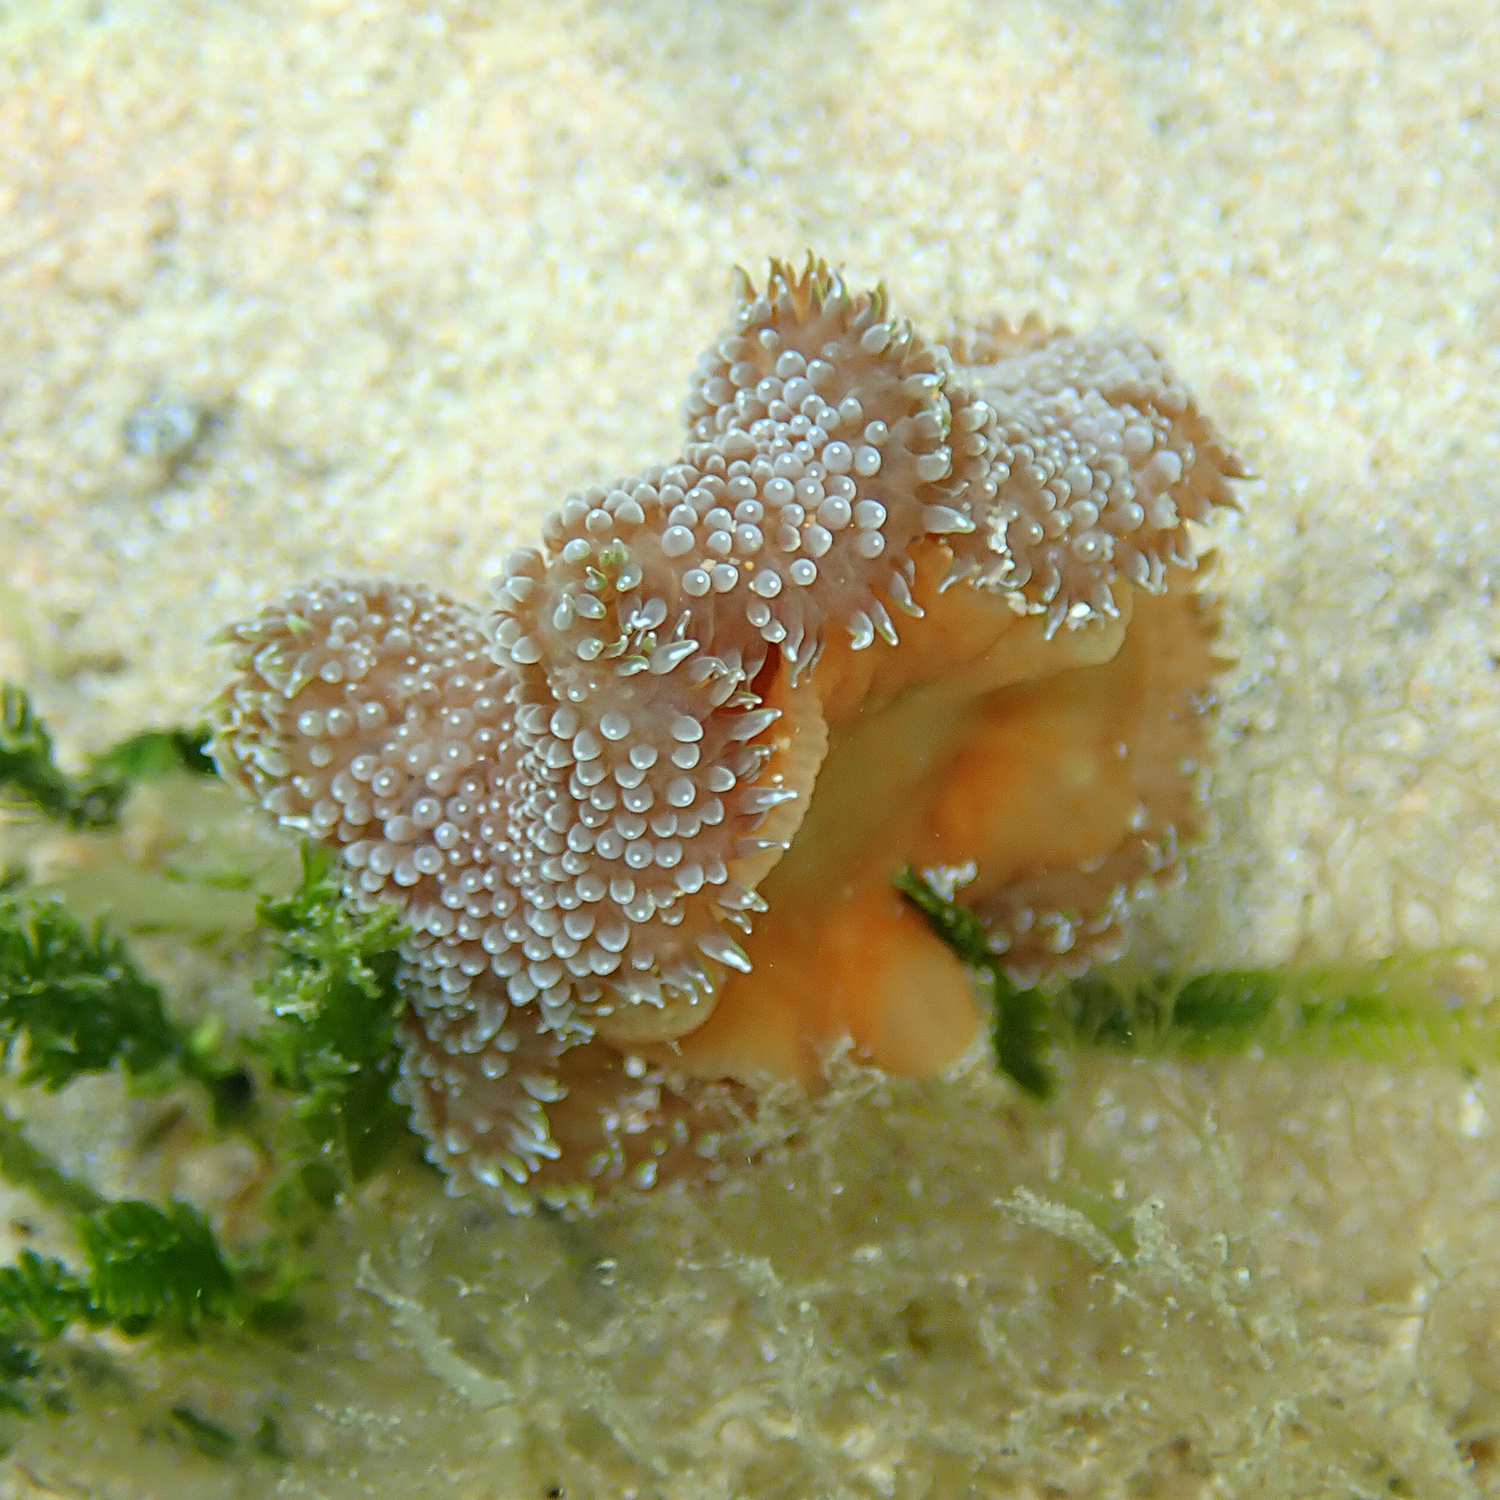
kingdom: Animalia
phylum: Cnidaria
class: Anthozoa
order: Actiniaria
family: Stichodactylidae
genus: Stichodactyla
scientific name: Stichodactyla tapetum
